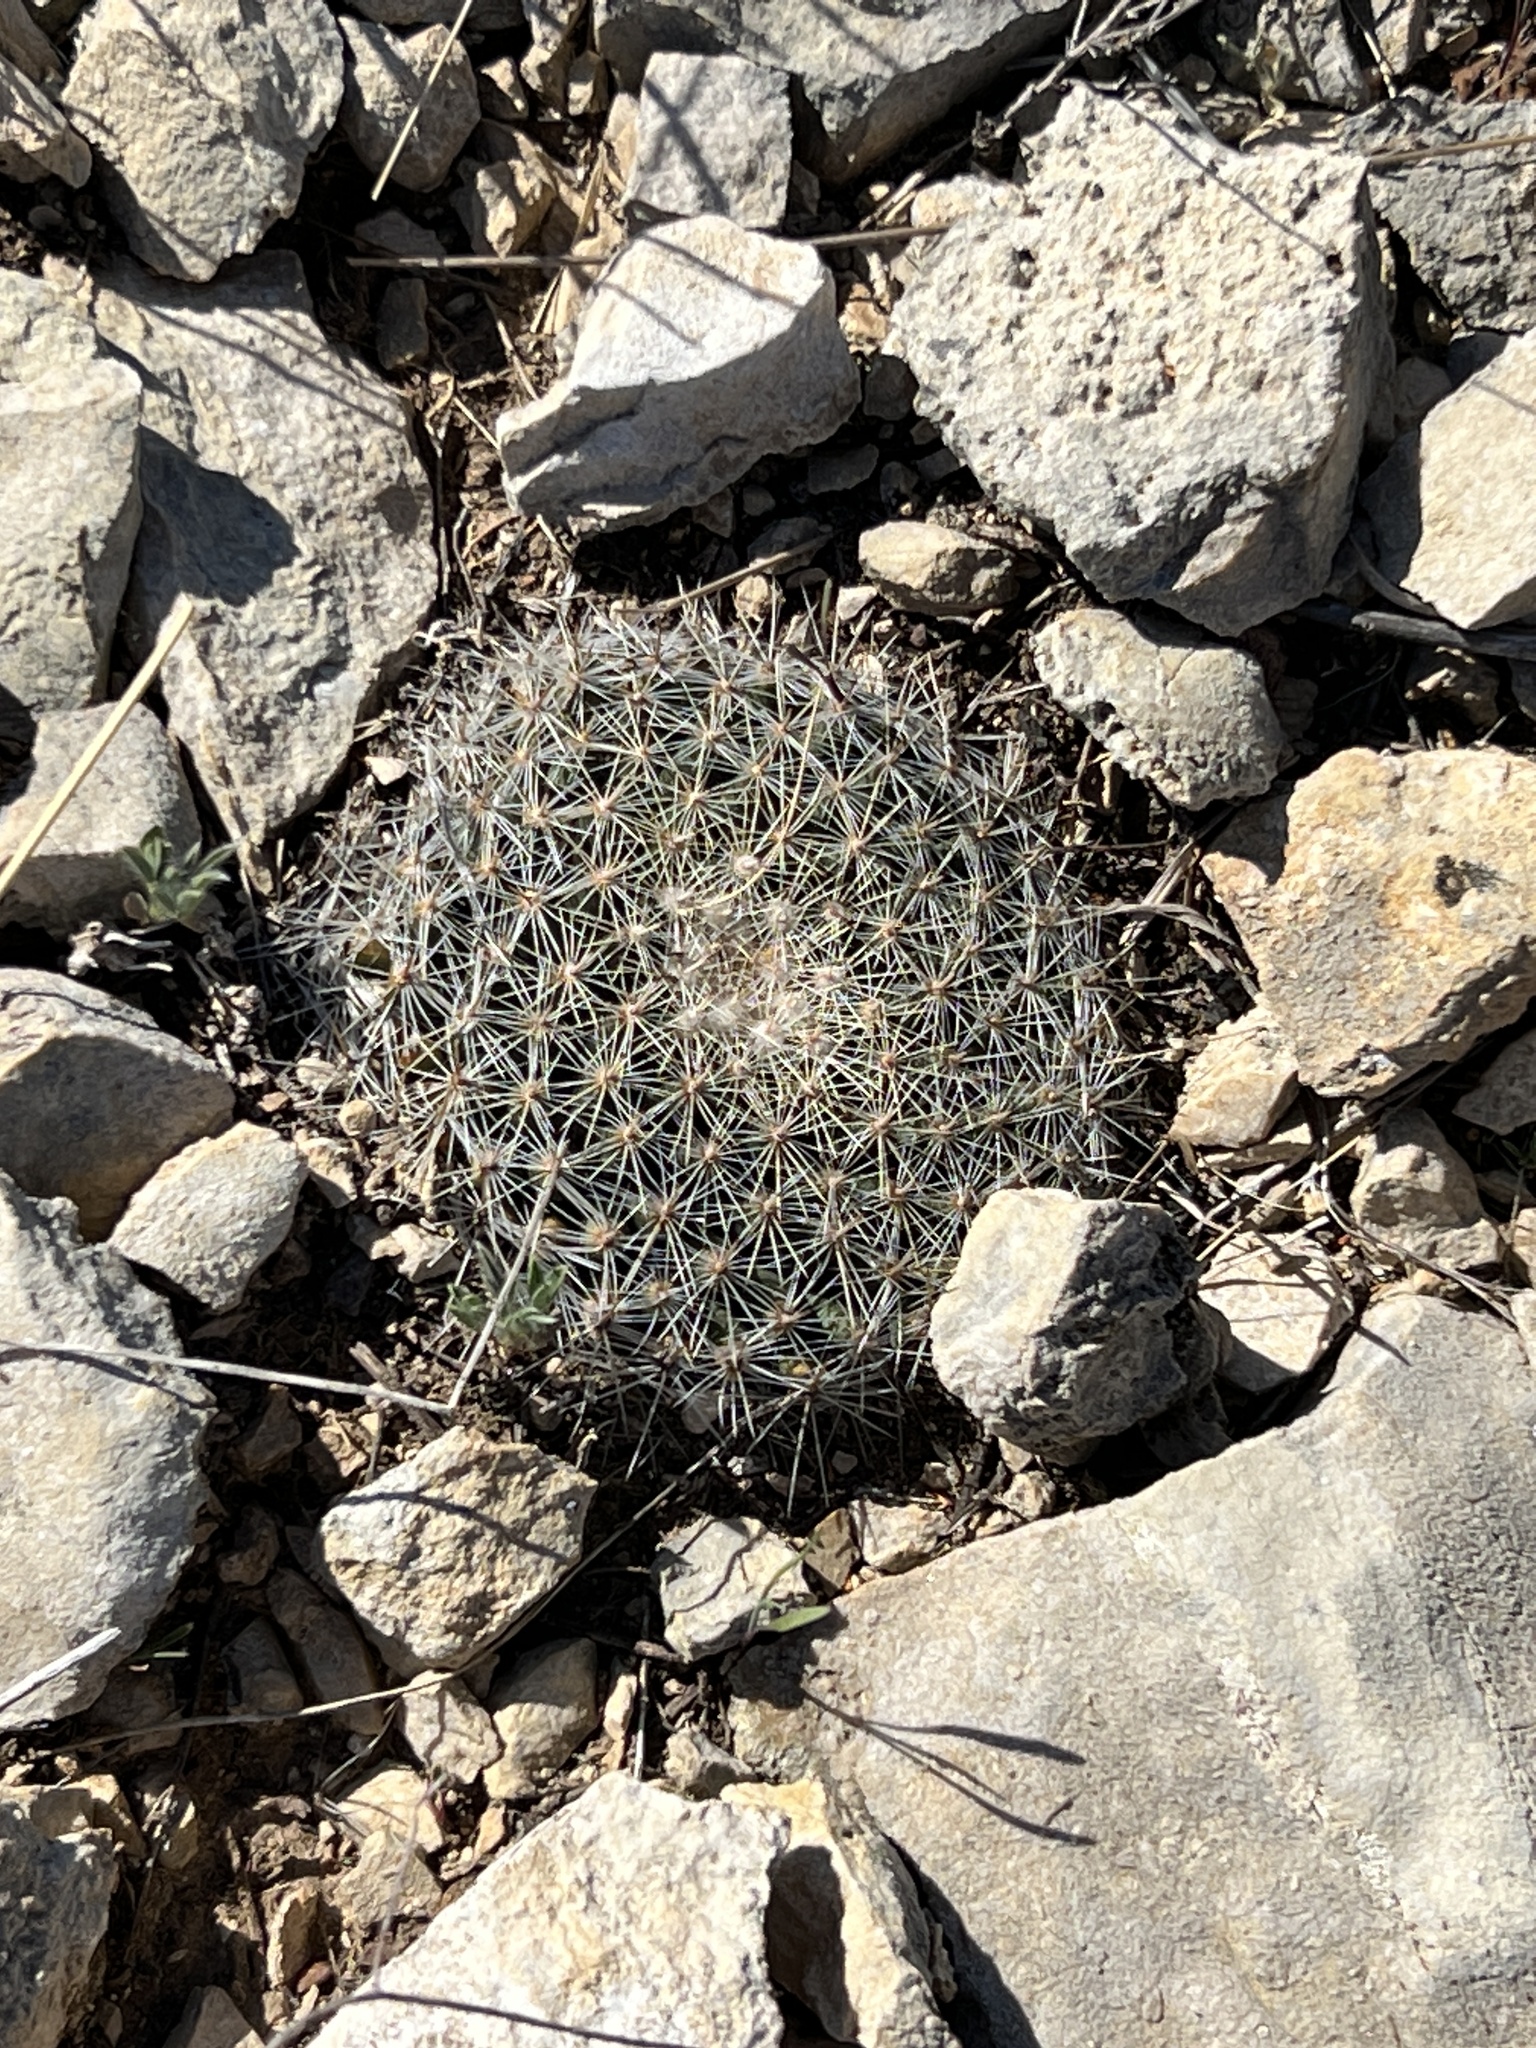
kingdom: Plantae
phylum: Tracheophyta
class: Magnoliopsida
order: Caryophyllales
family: Cactaceae
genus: Mammillaria
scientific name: Mammillaria heyderi
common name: Little nipple cactus
